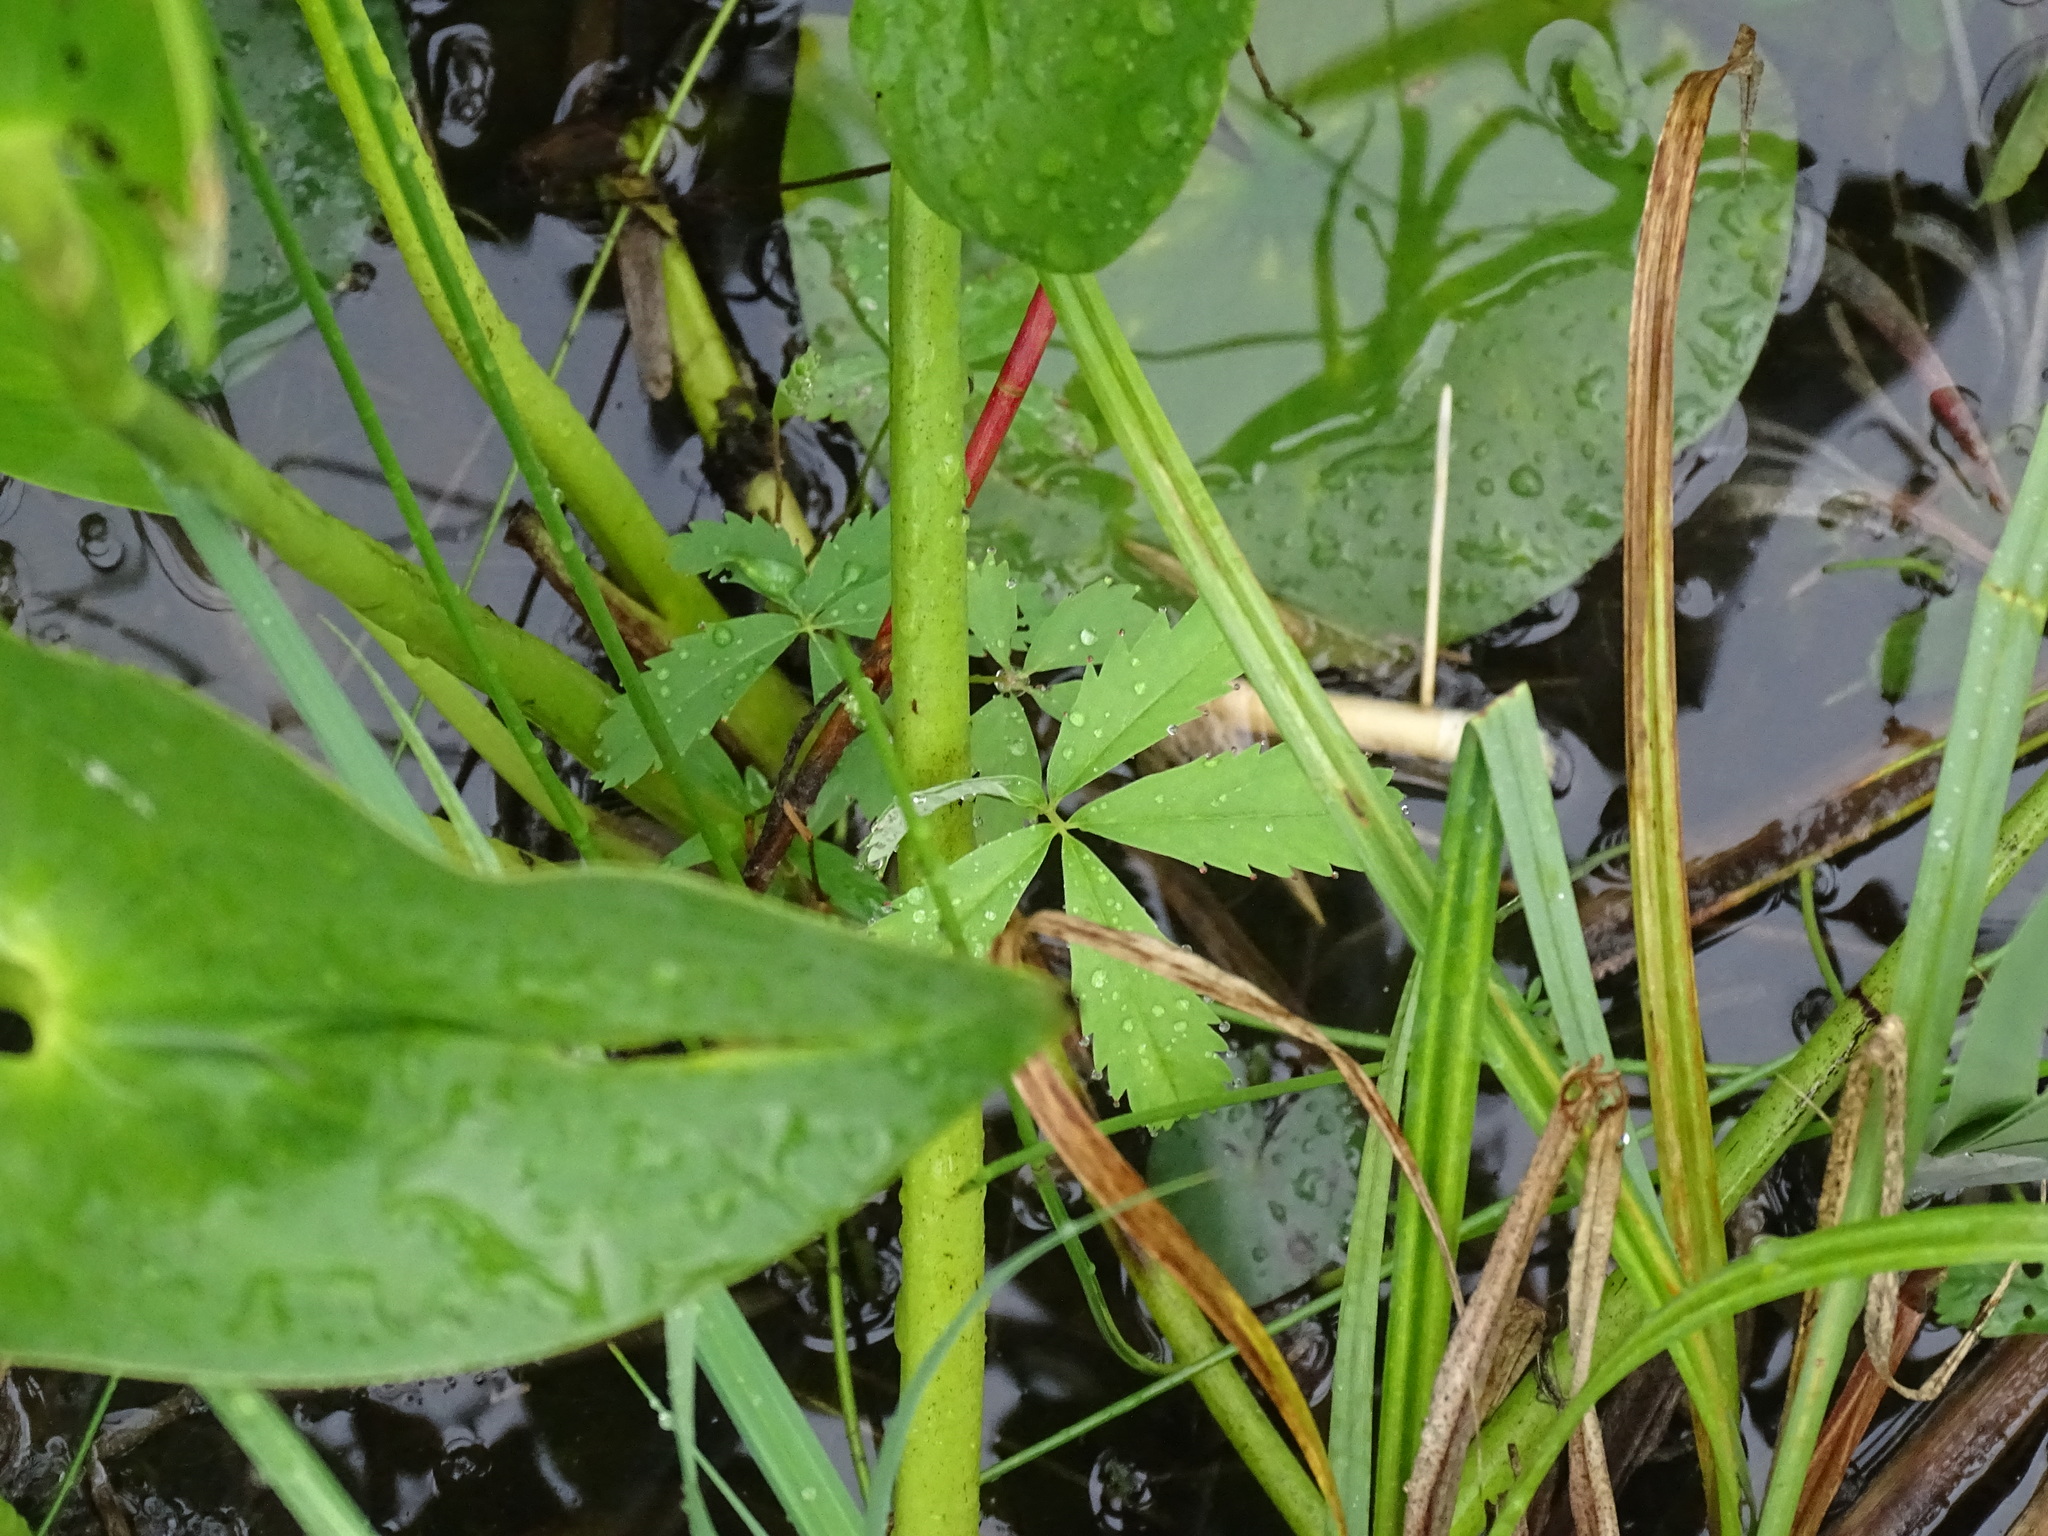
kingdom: Plantae
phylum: Tracheophyta
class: Magnoliopsida
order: Rosales
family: Rosaceae
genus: Comarum
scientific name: Comarum palustre
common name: Marsh cinquefoil
